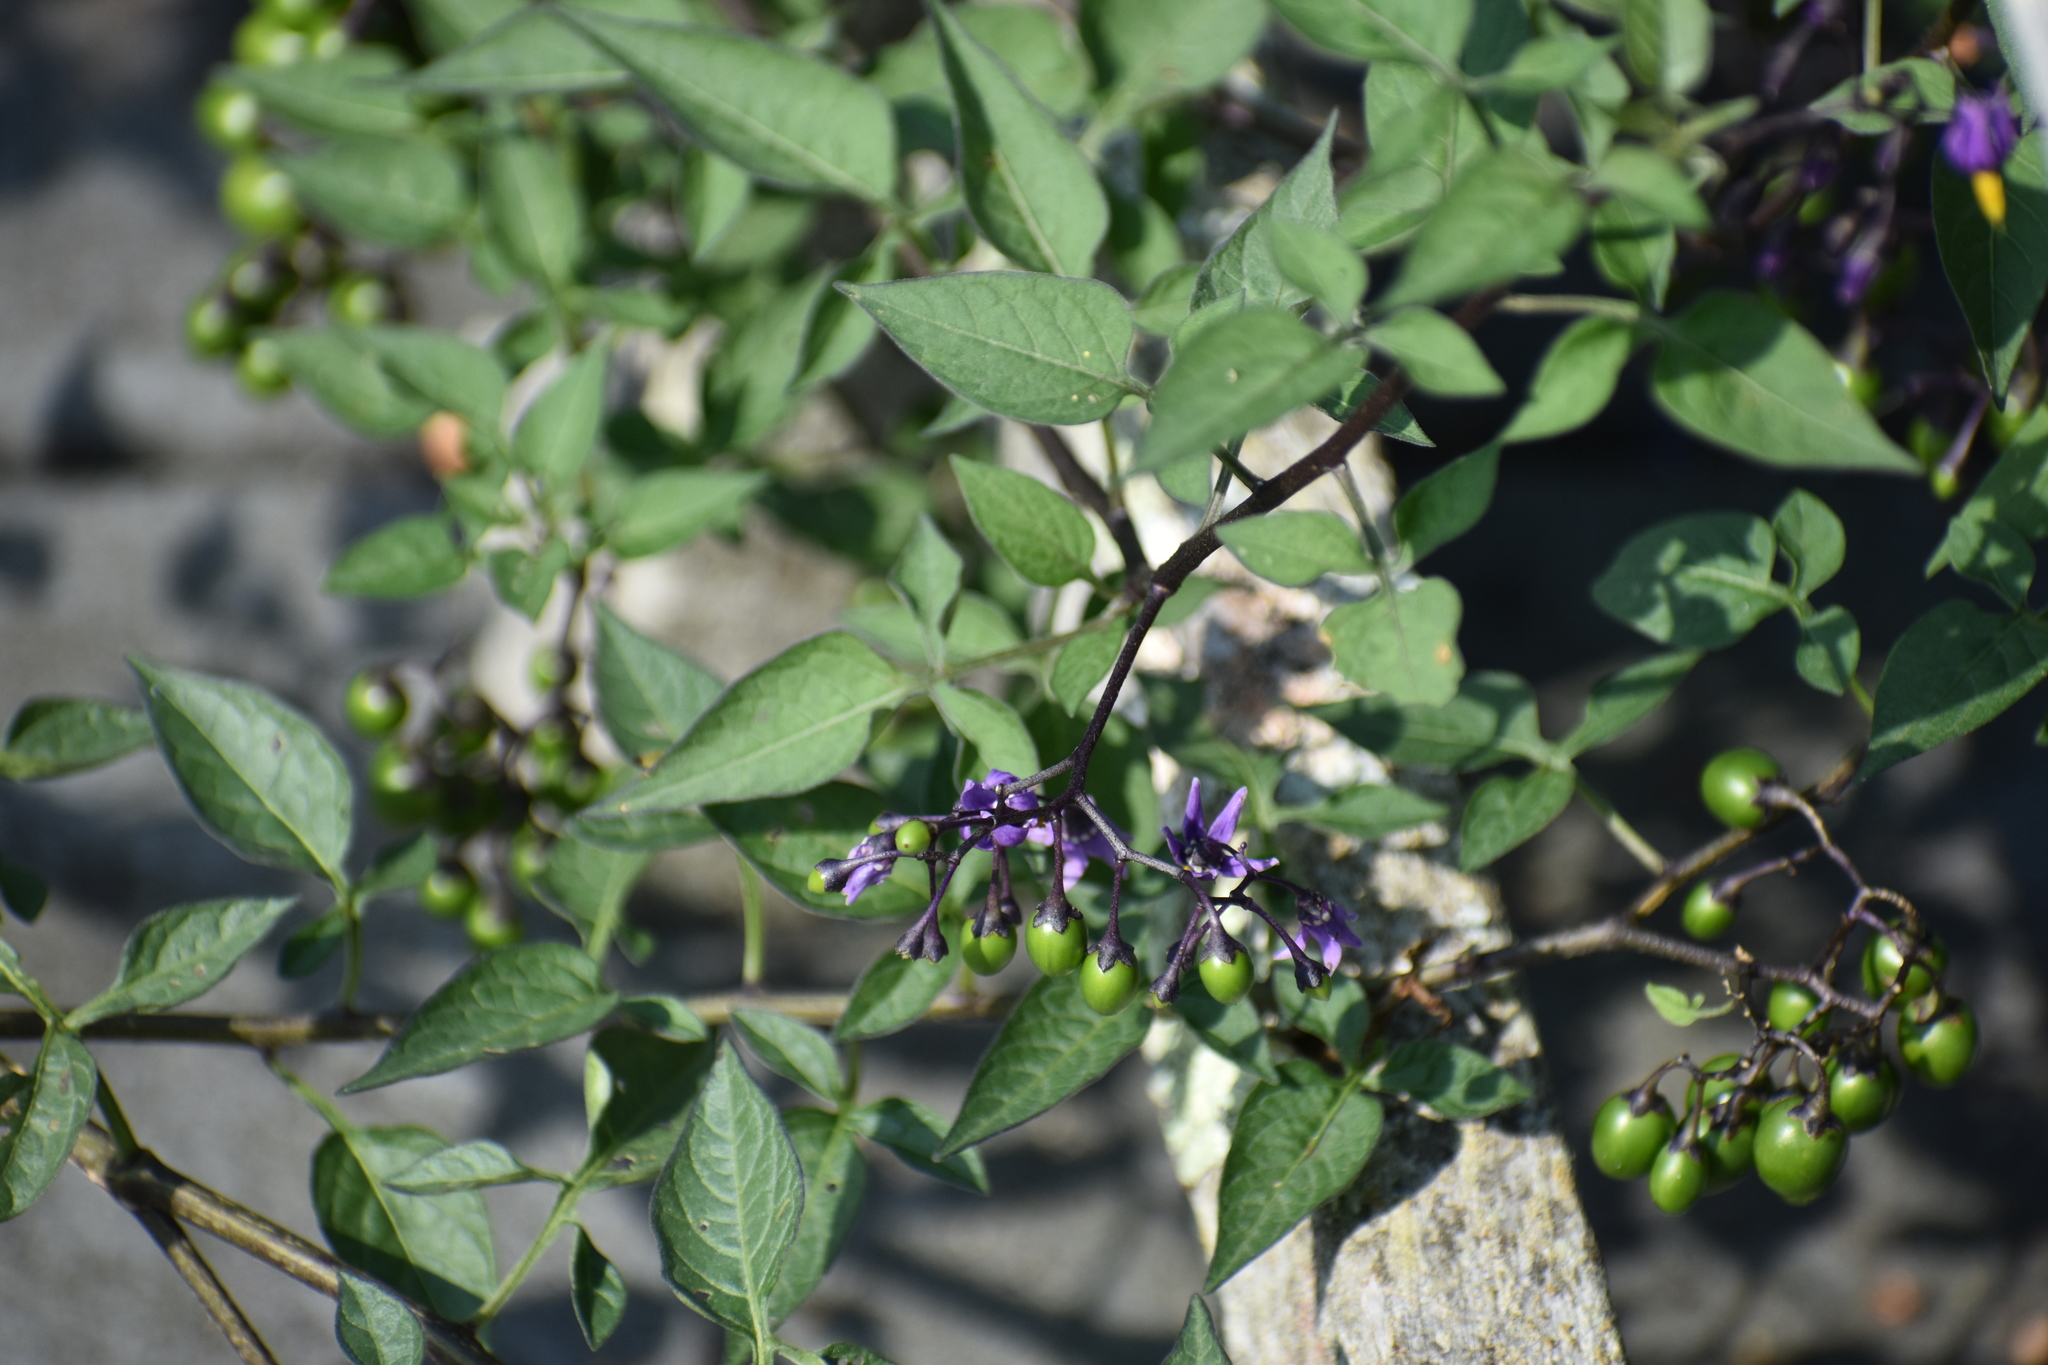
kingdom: Plantae
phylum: Tracheophyta
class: Magnoliopsida
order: Solanales
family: Solanaceae
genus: Solanum
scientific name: Solanum dulcamara
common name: Climbing nightshade
